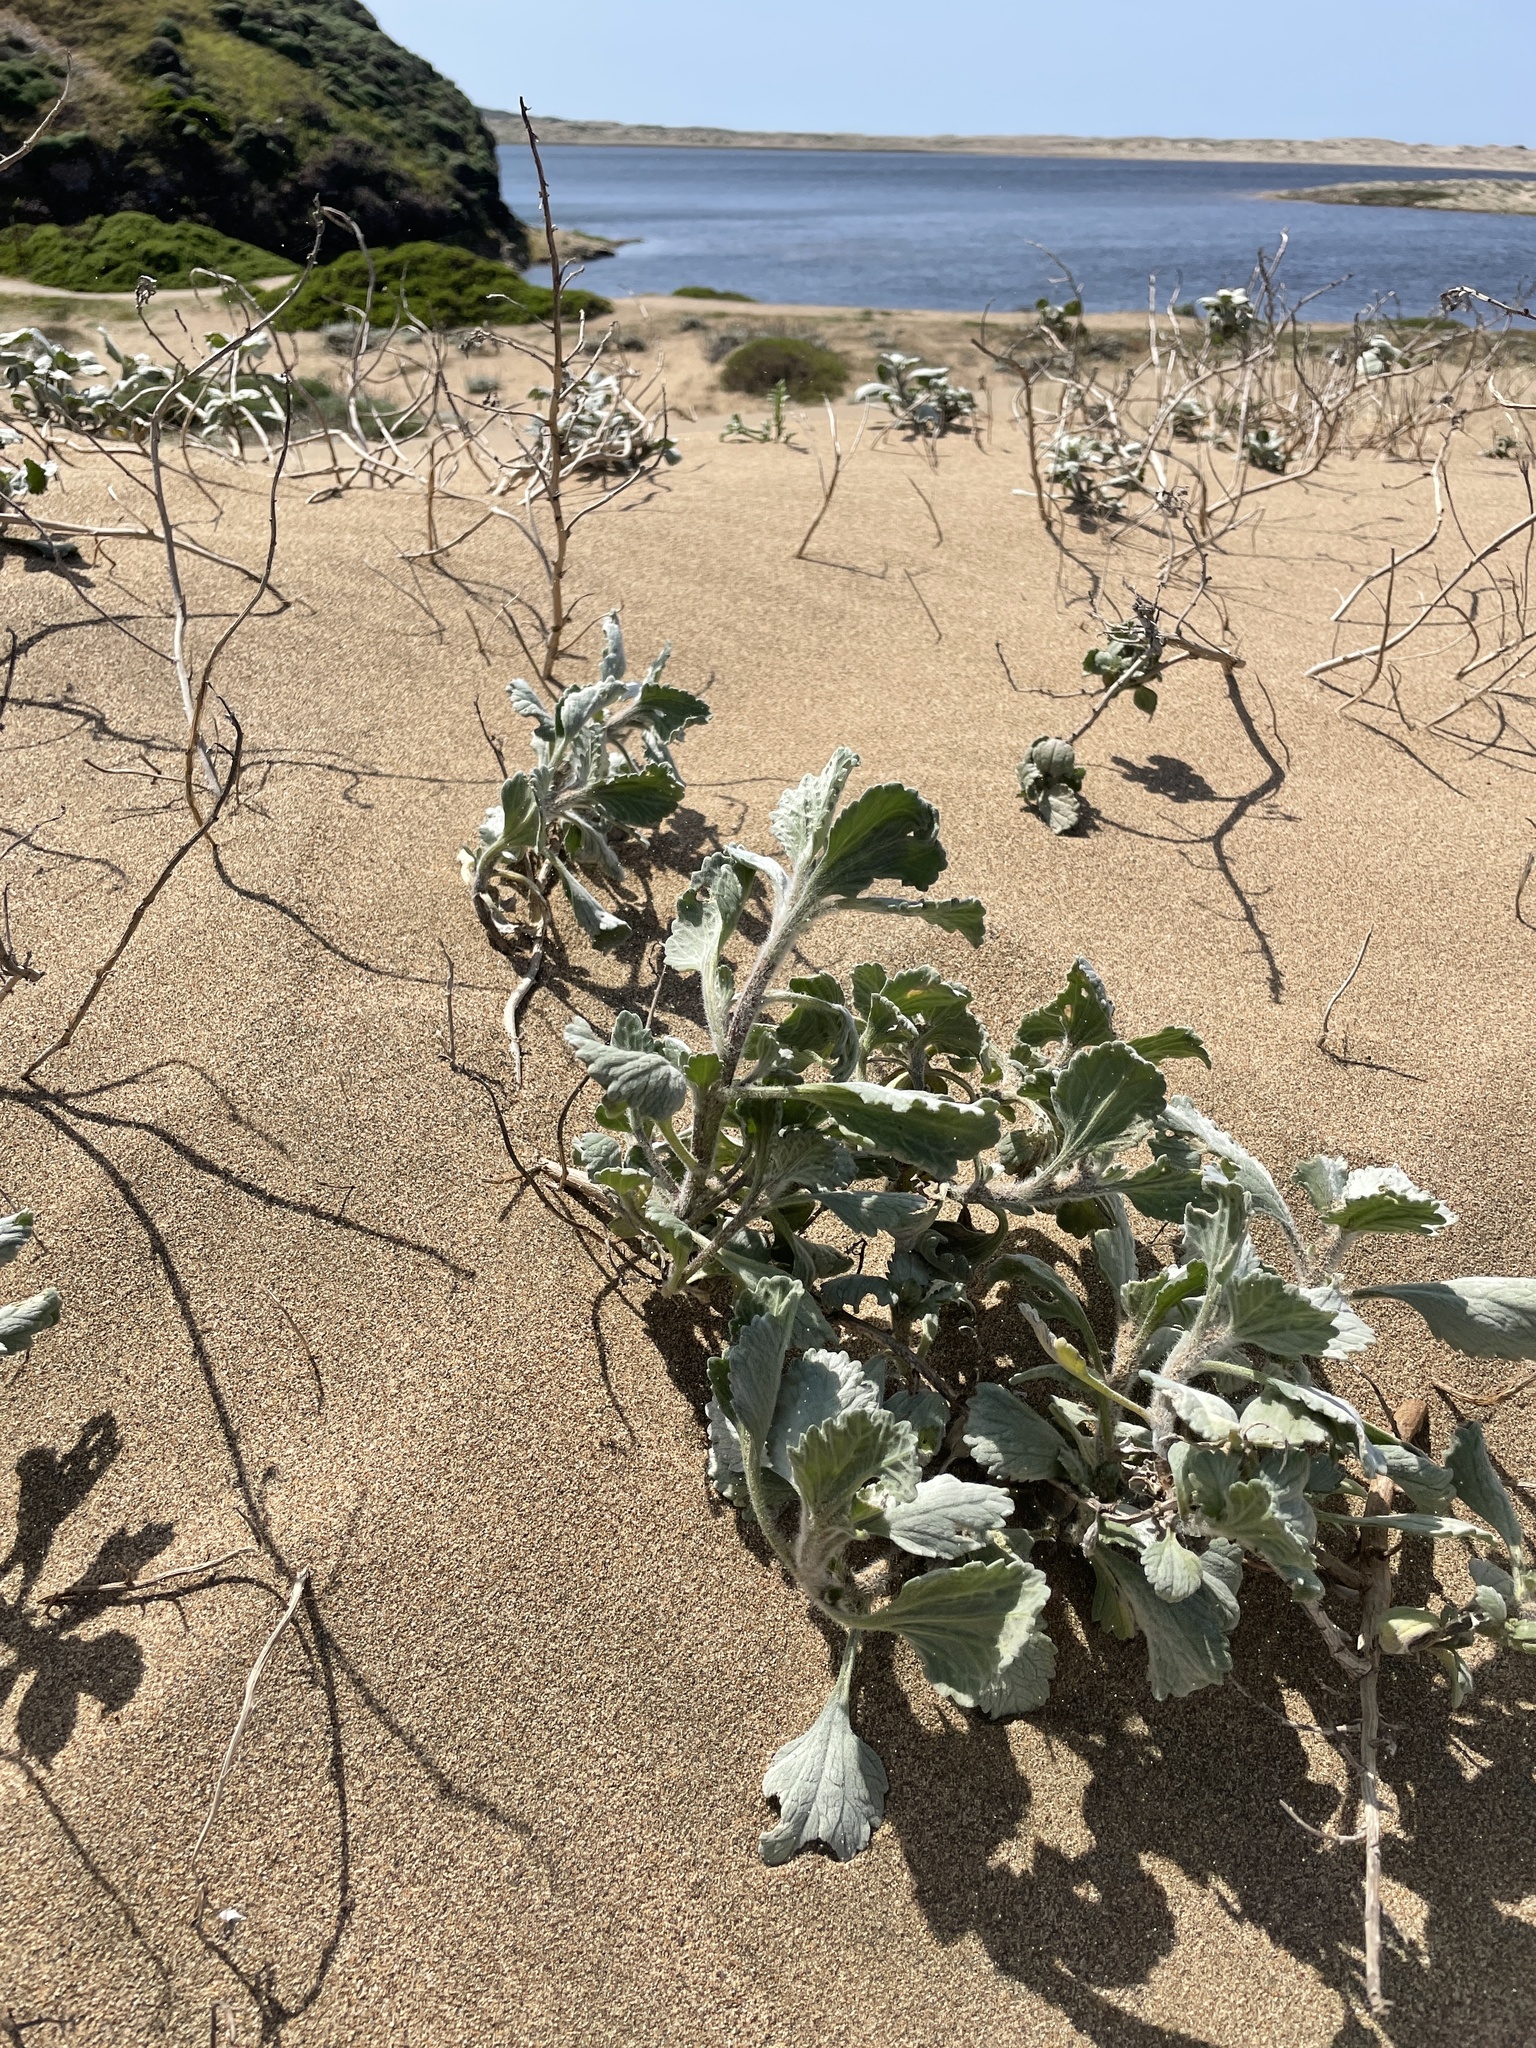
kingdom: Plantae
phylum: Tracheophyta
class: Magnoliopsida
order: Asterales
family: Asteraceae
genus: Ambrosia
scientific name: Ambrosia chamissonis
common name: Beachbur
